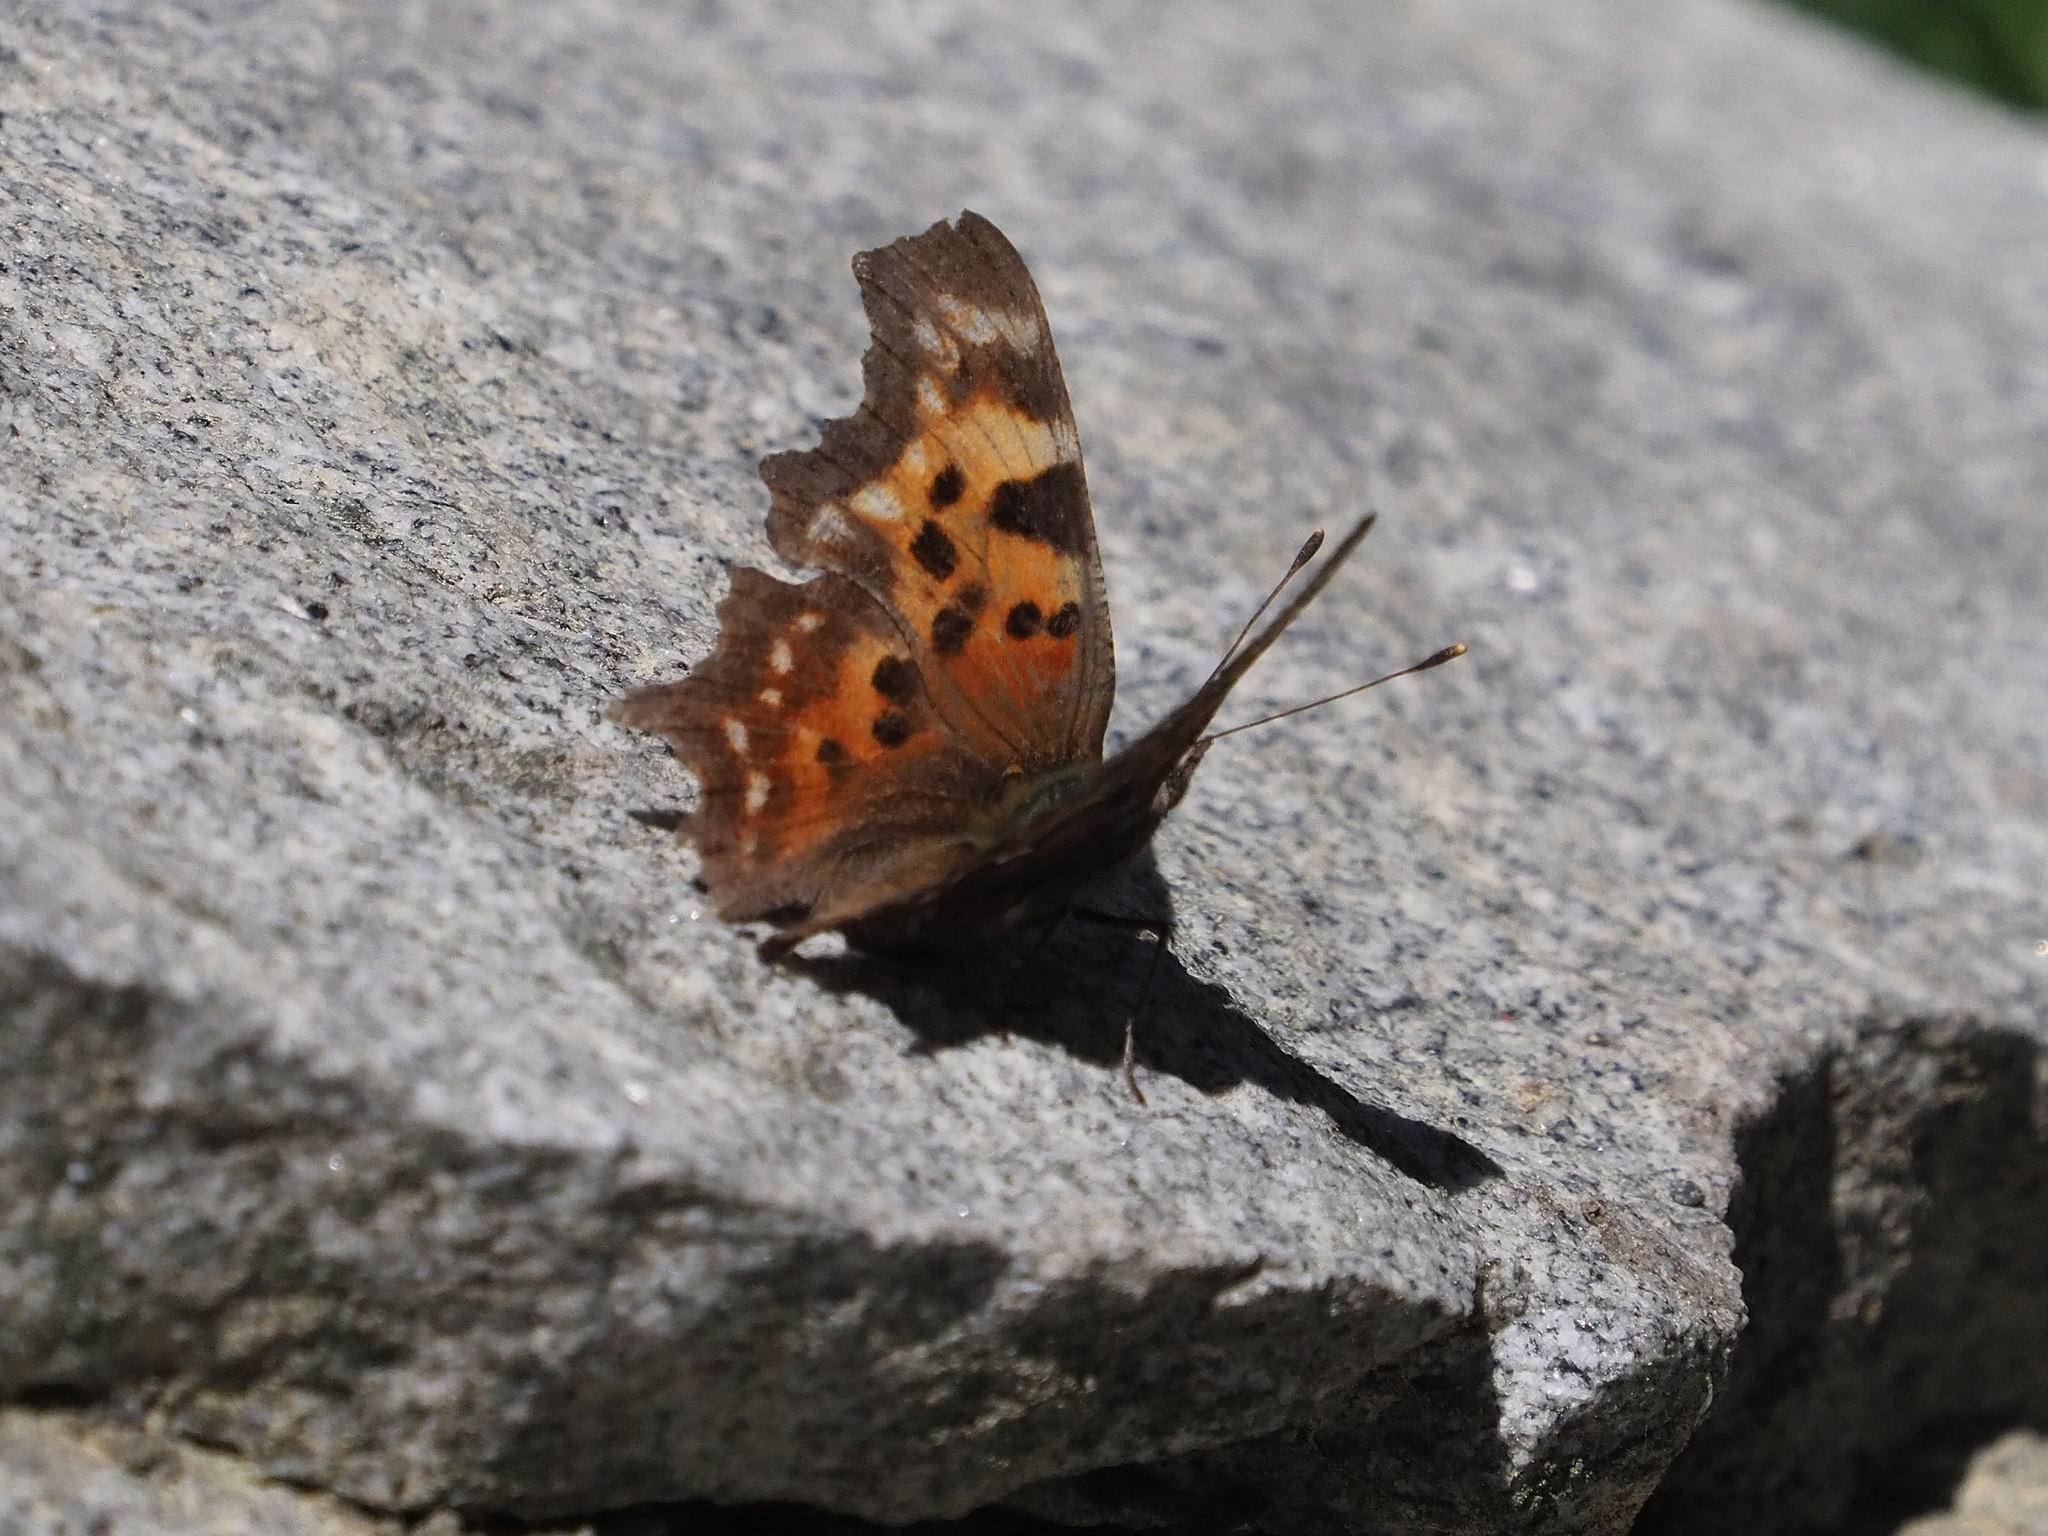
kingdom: Animalia
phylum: Arthropoda
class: Insecta
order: Lepidoptera
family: Nymphalidae
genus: Polygonia
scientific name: Polygonia faunus
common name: Green comma
